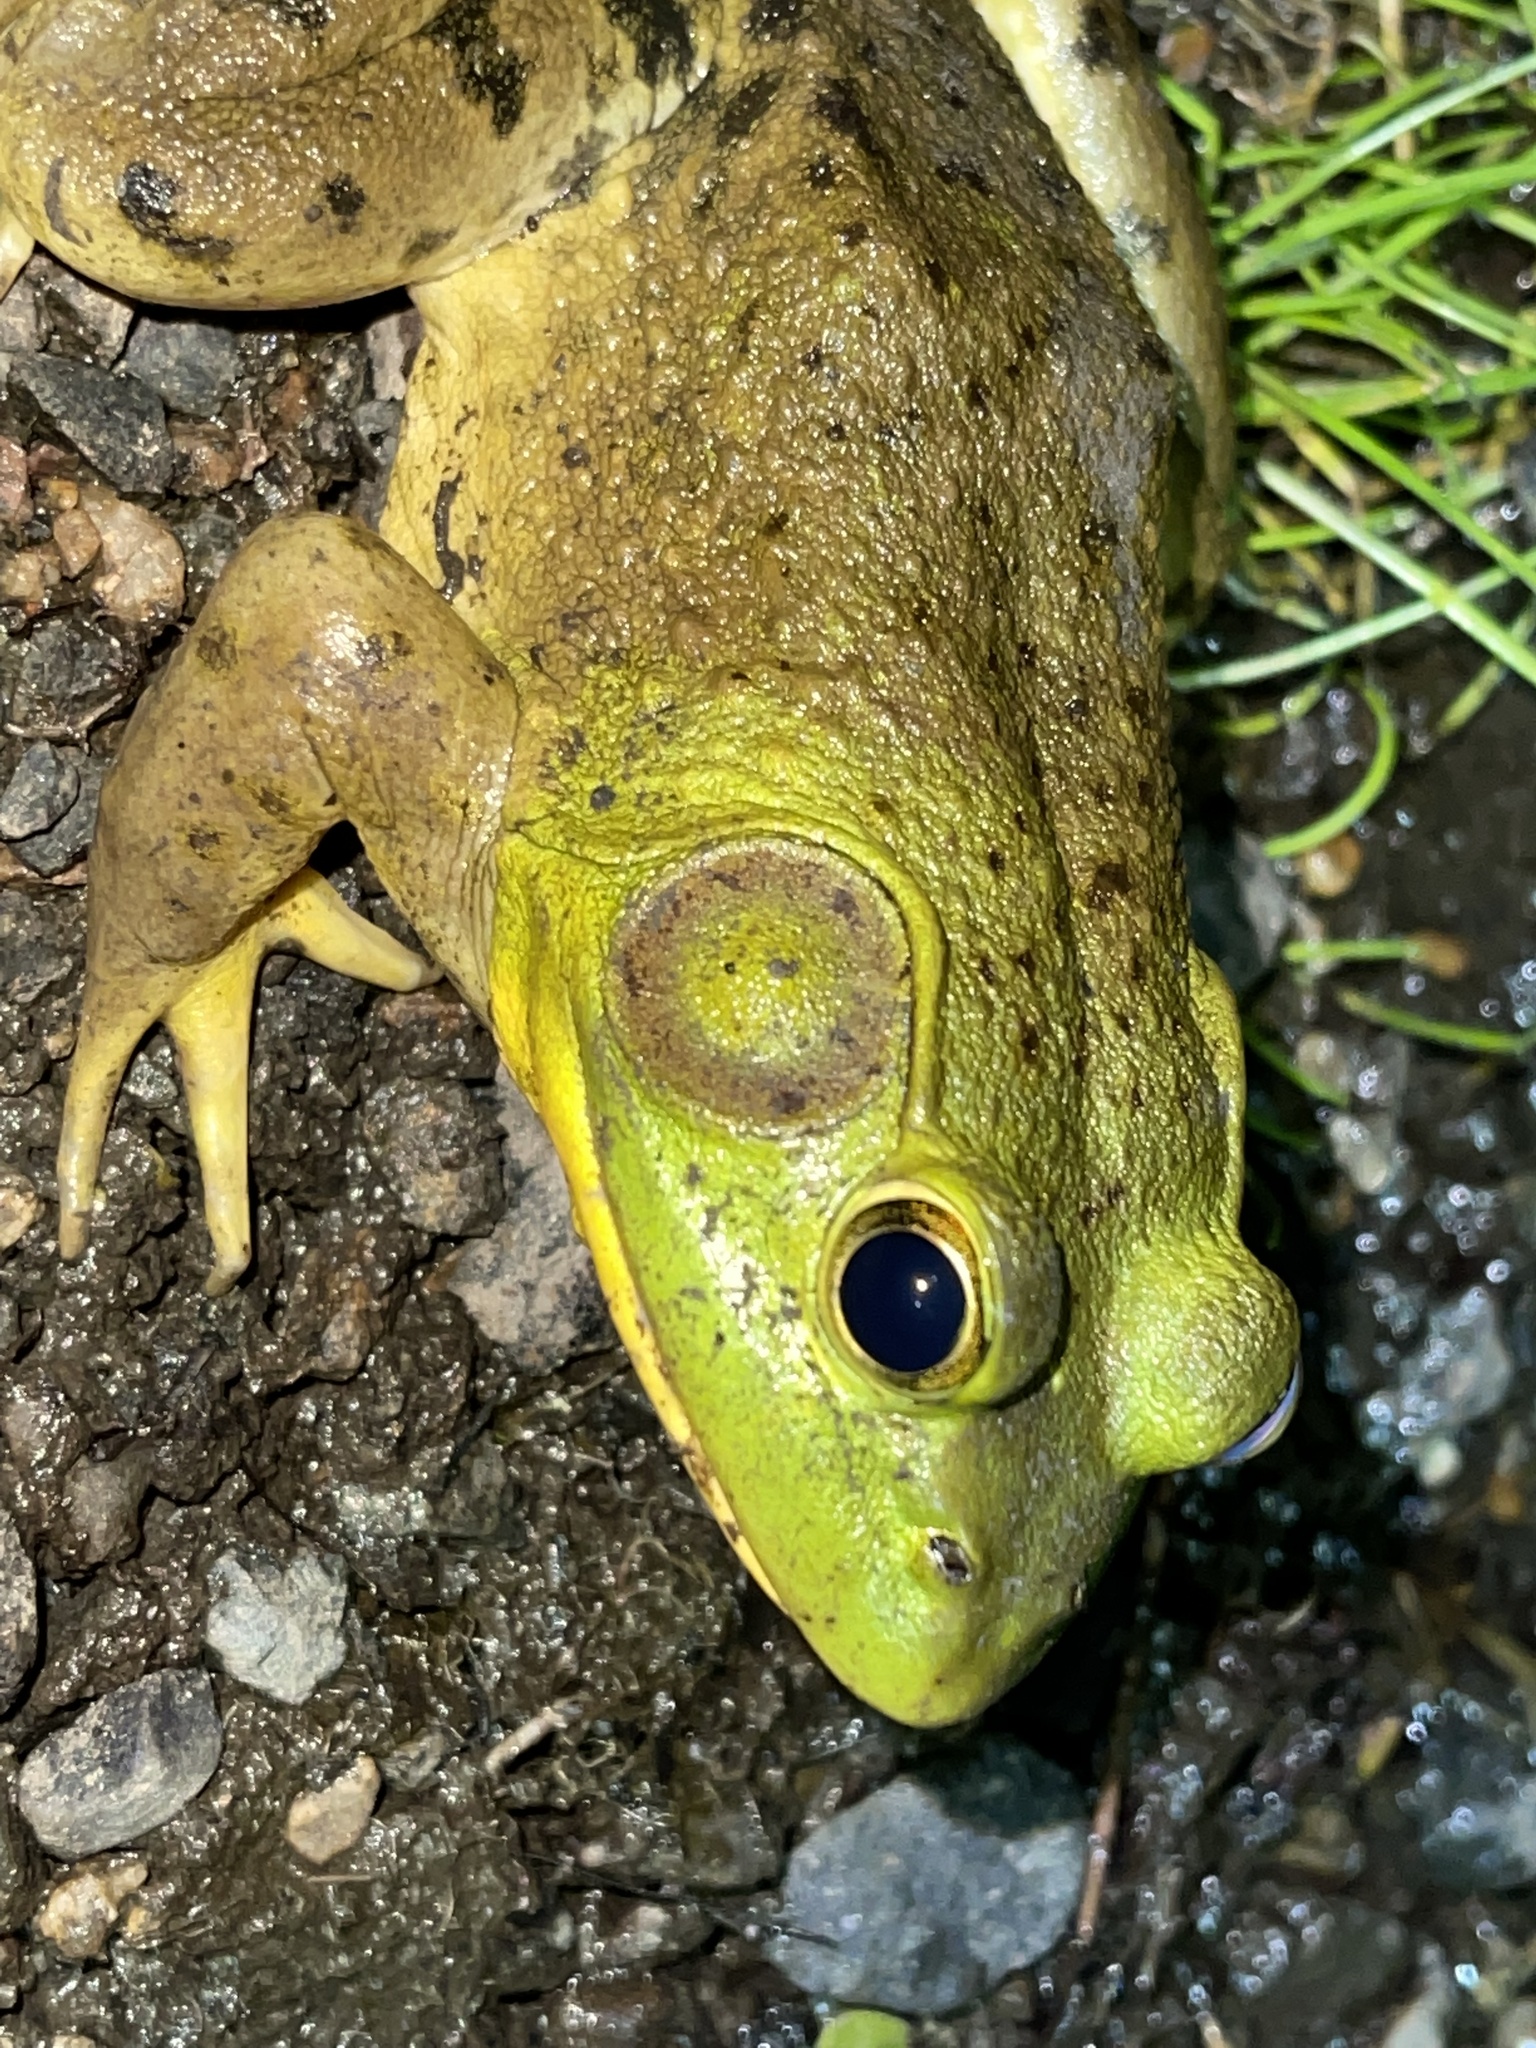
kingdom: Animalia
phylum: Chordata
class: Amphibia
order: Anura
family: Ranidae
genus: Lithobates
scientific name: Lithobates catesbeianus
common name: American bullfrog
